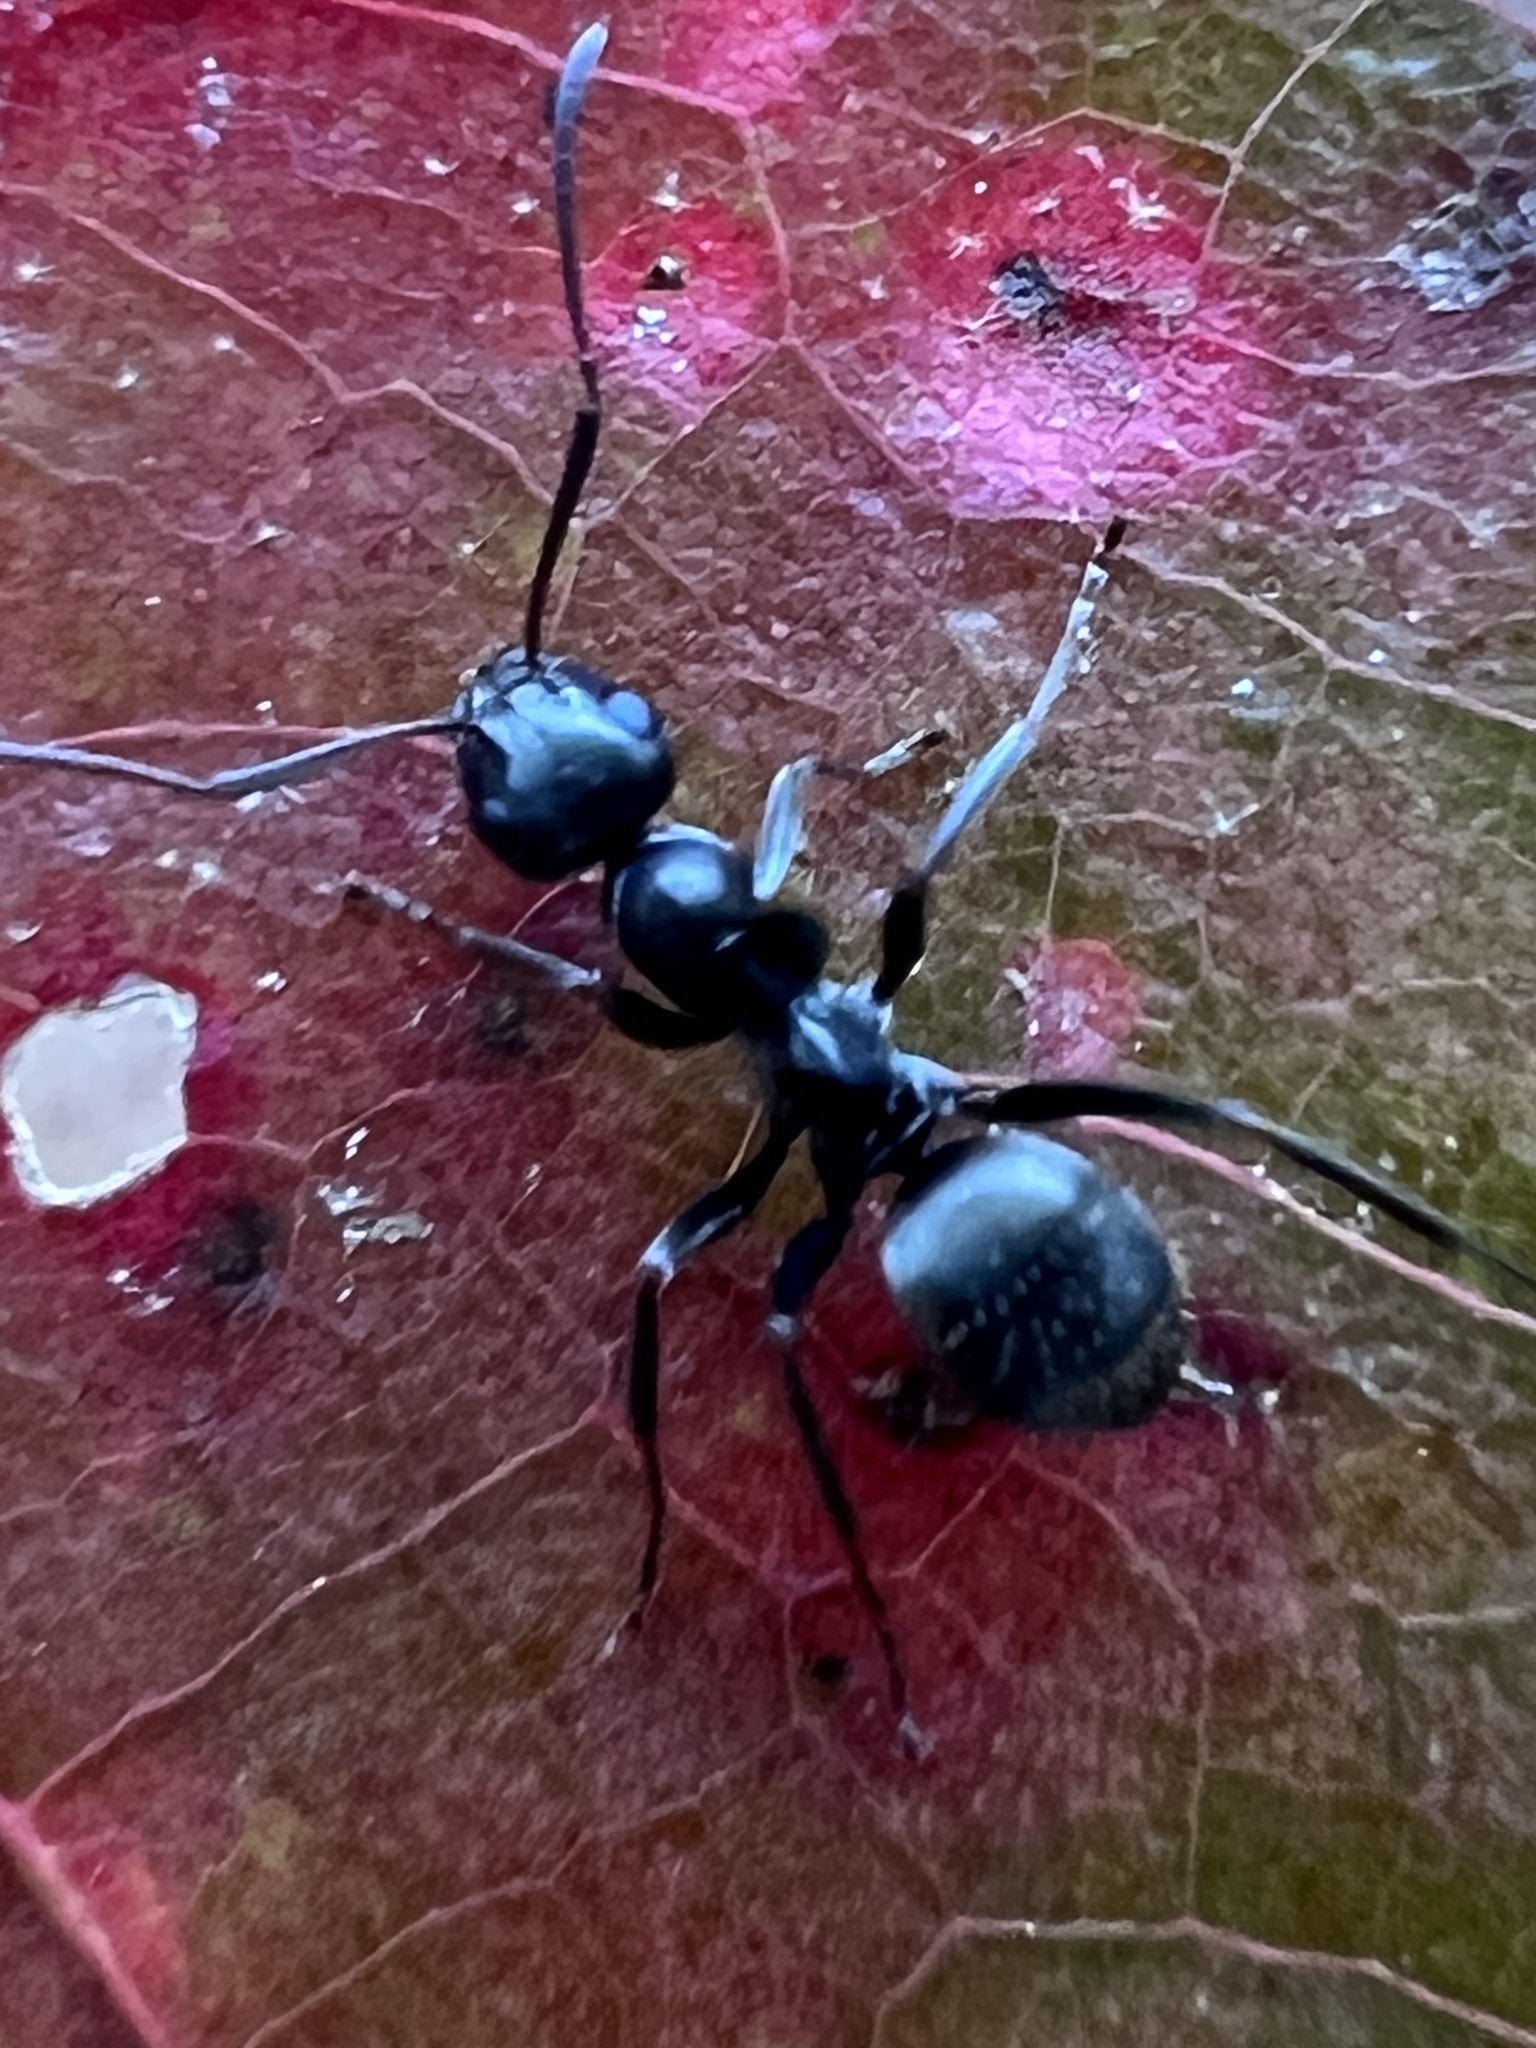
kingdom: Animalia
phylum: Arthropoda
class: Insecta
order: Hymenoptera
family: Formicidae
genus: Formica
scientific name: Formica subsericea
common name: Silky field ant
